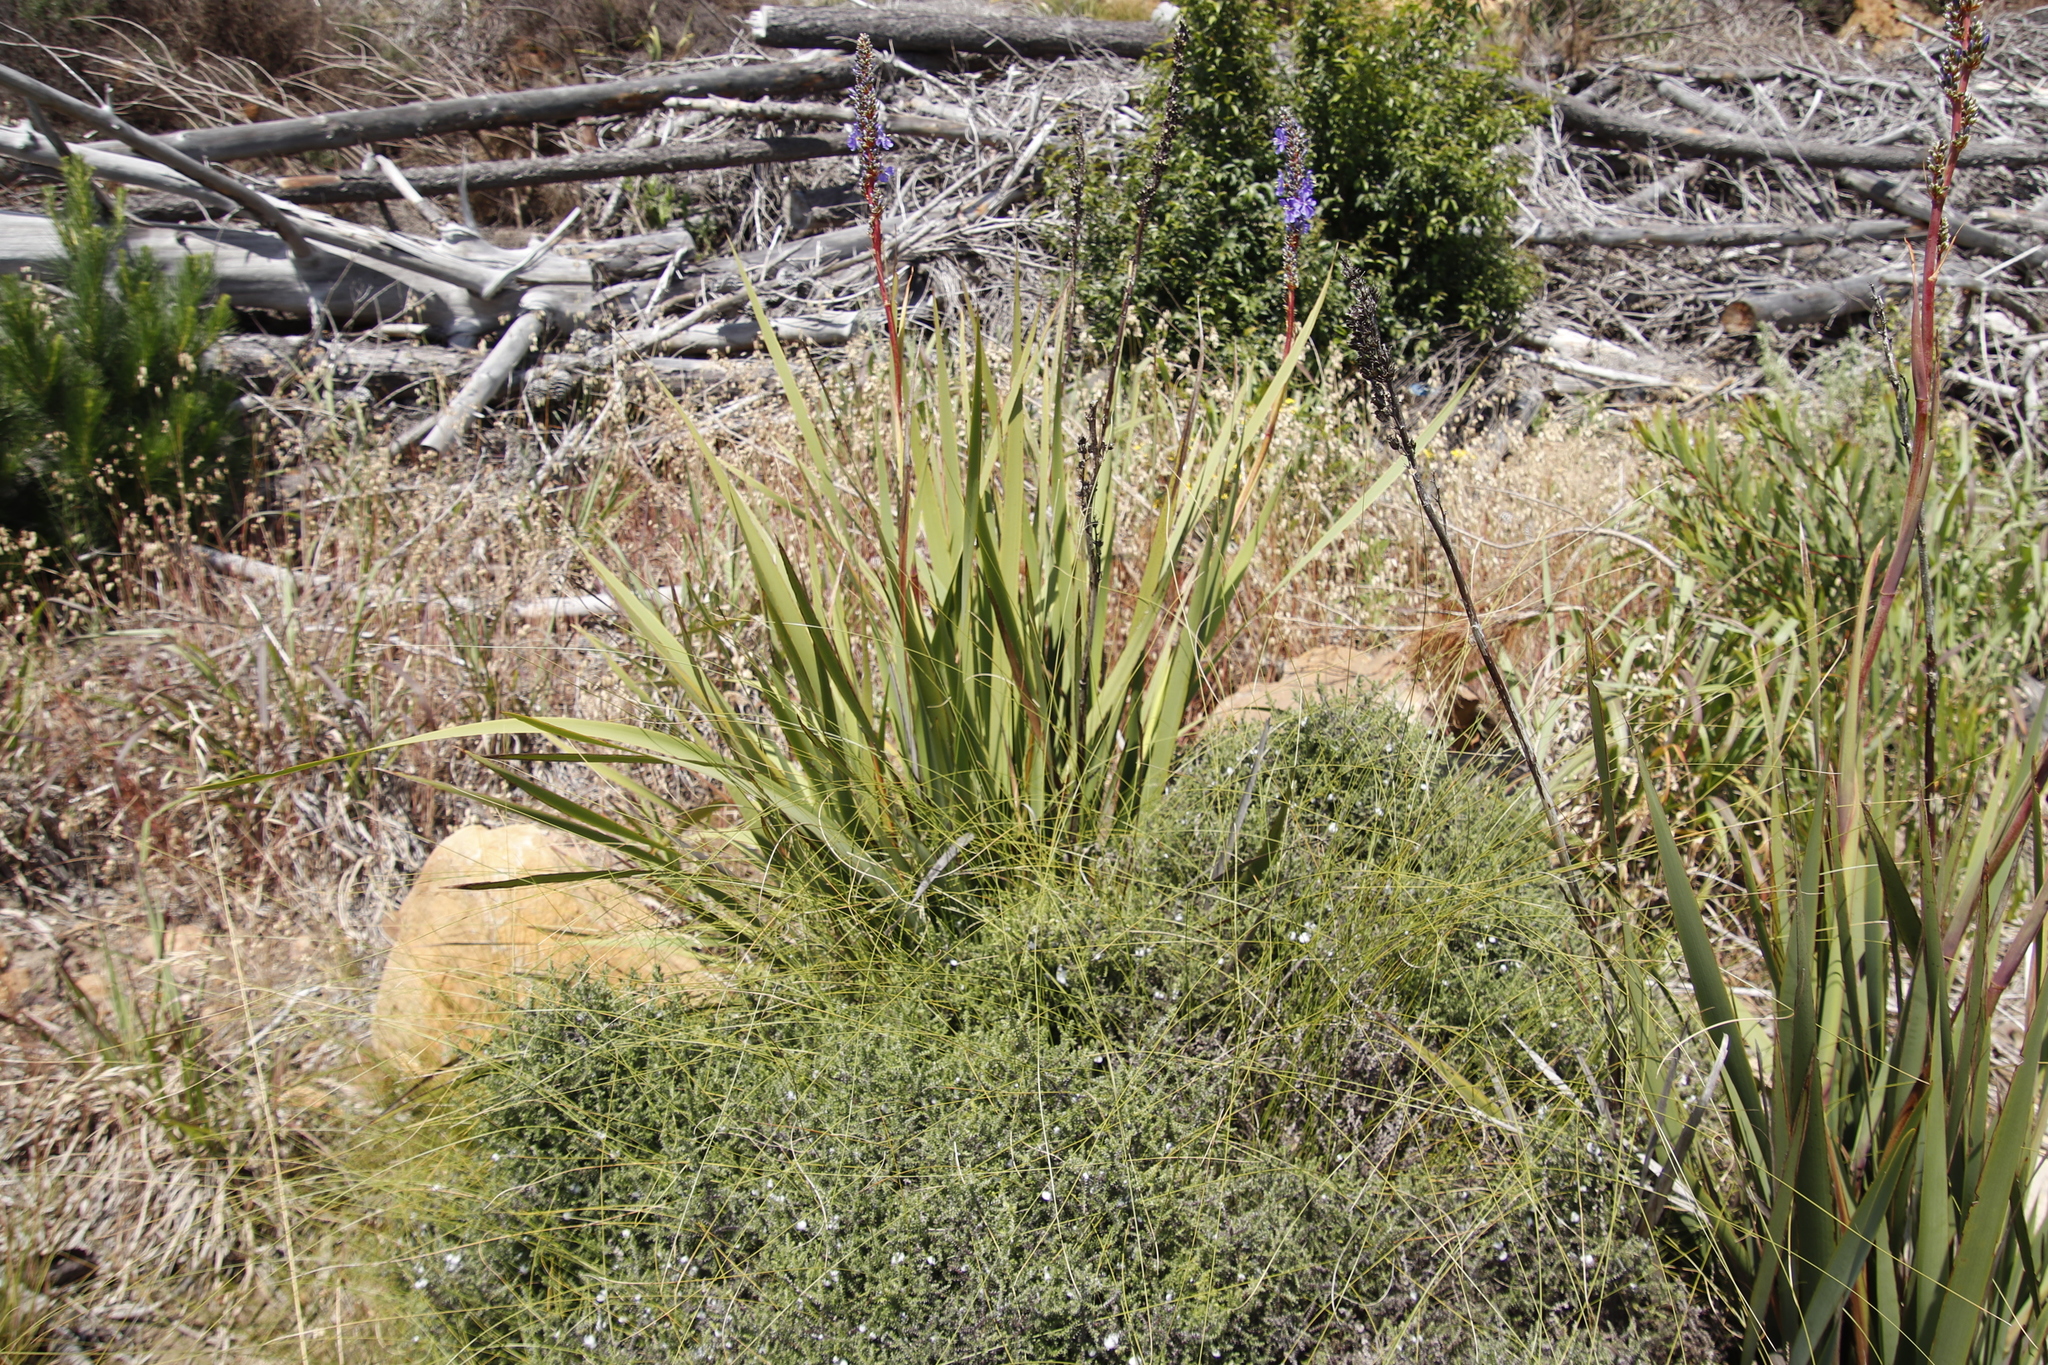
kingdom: Plantae
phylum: Tracheophyta
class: Liliopsida
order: Asparagales
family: Iridaceae
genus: Aristea
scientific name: Aristea capitata
